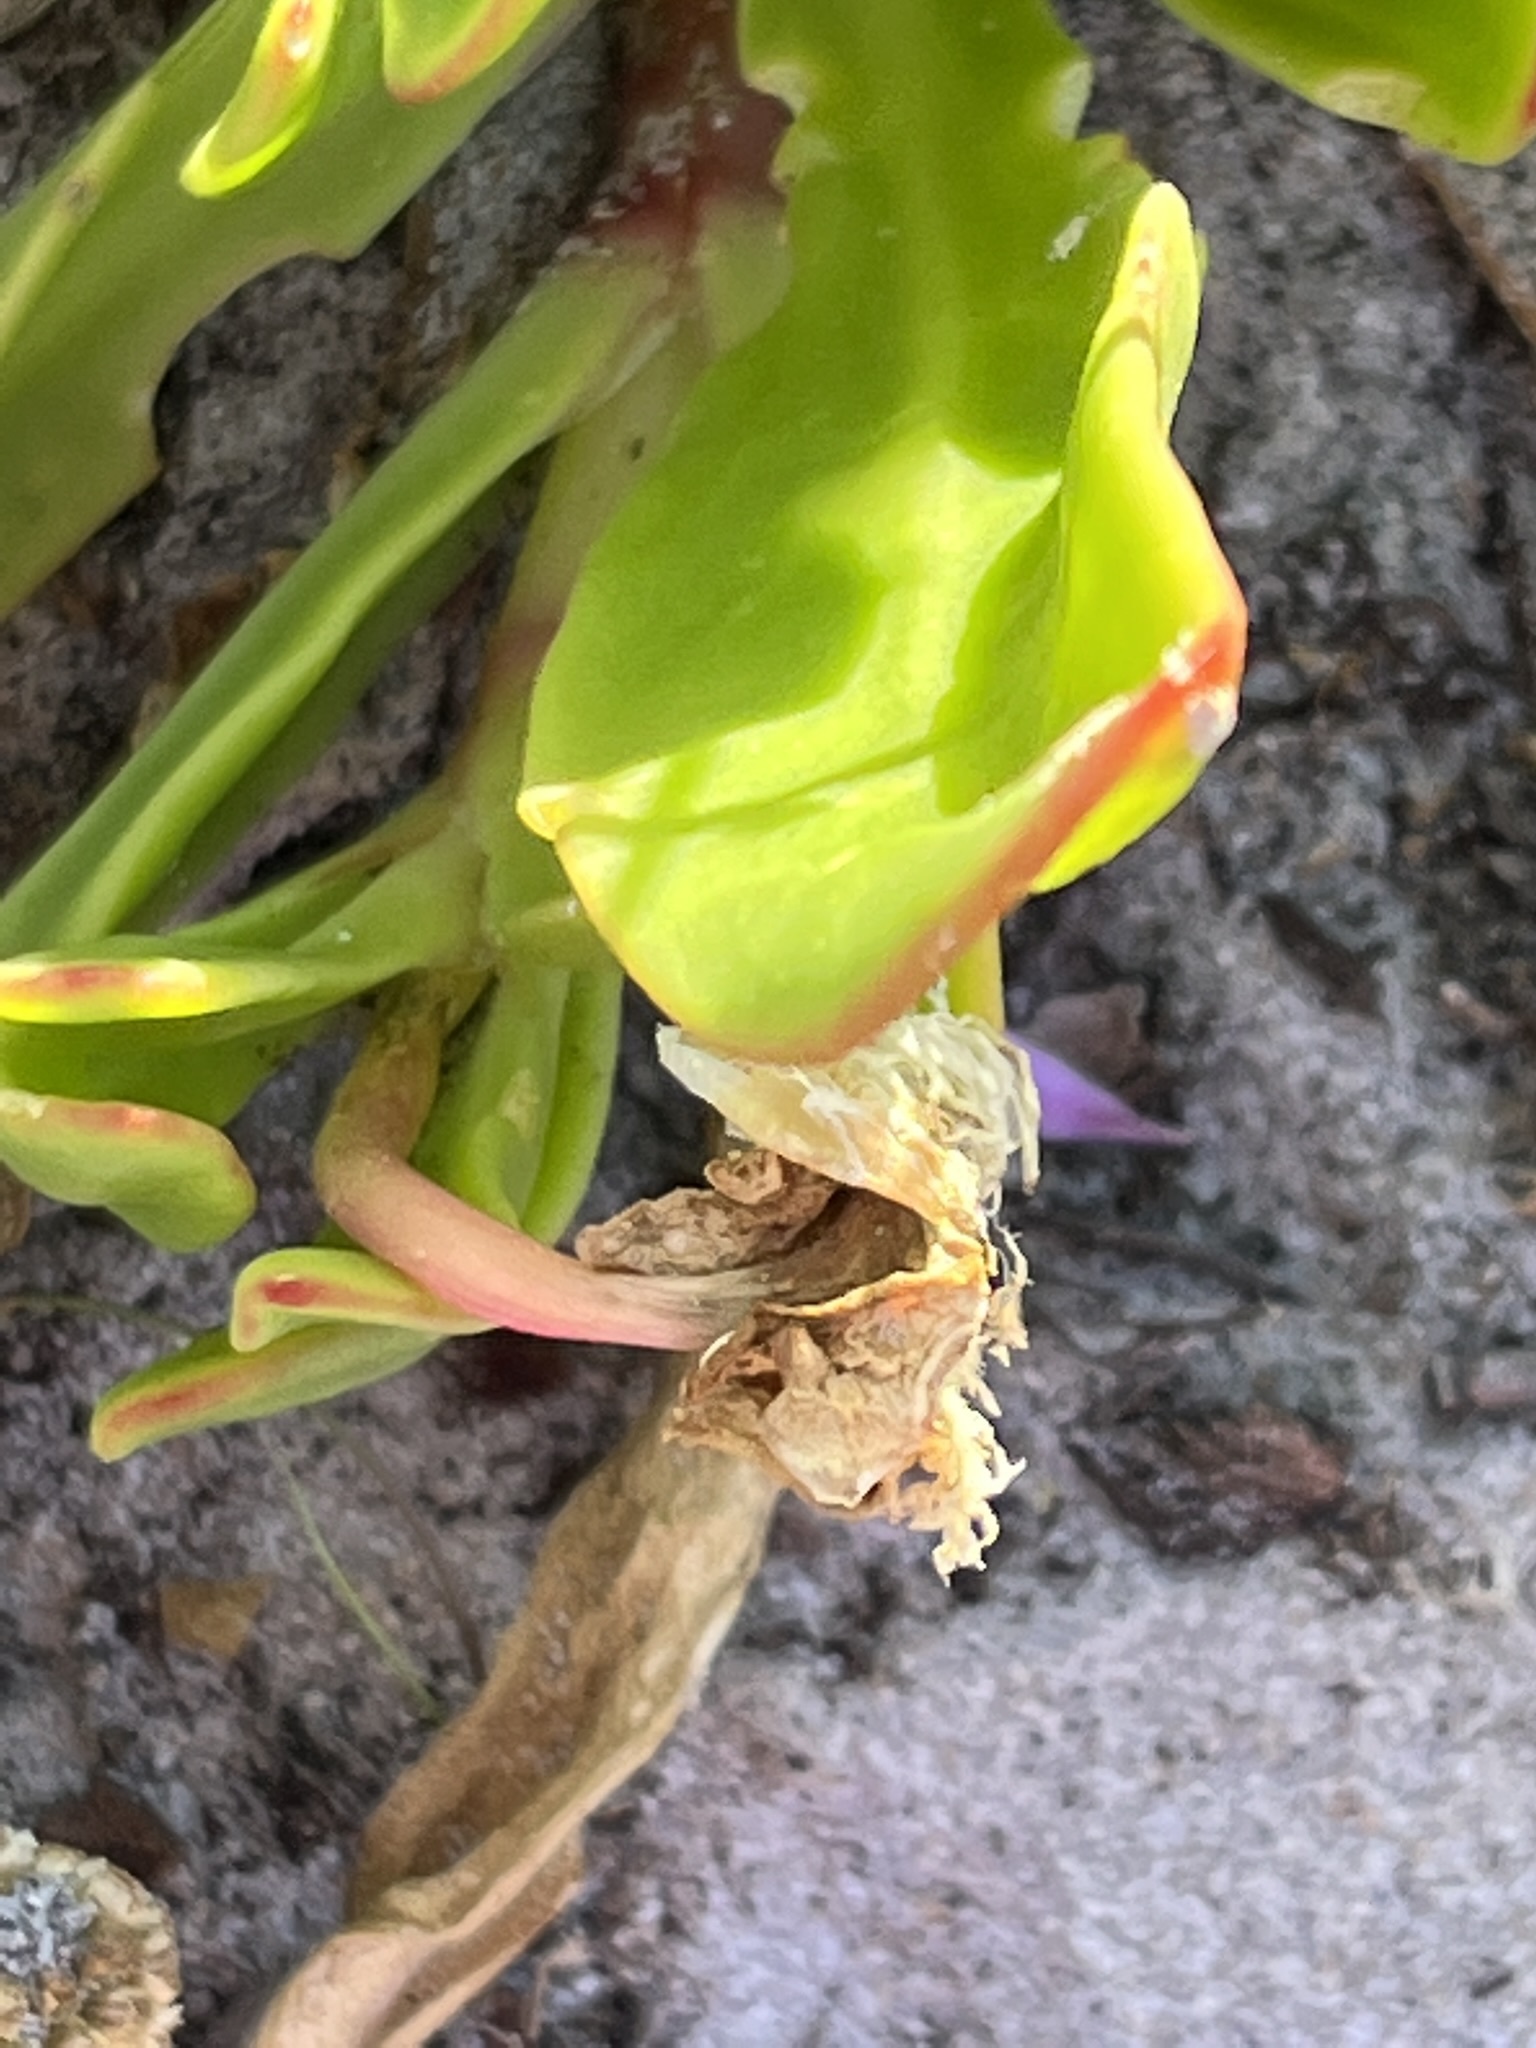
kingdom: Plantae
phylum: Tracheophyta
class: Magnoliopsida
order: Caryophyllales
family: Aizoaceae
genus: Skiatophytum
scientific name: Skiatophytum skiatophytoides
